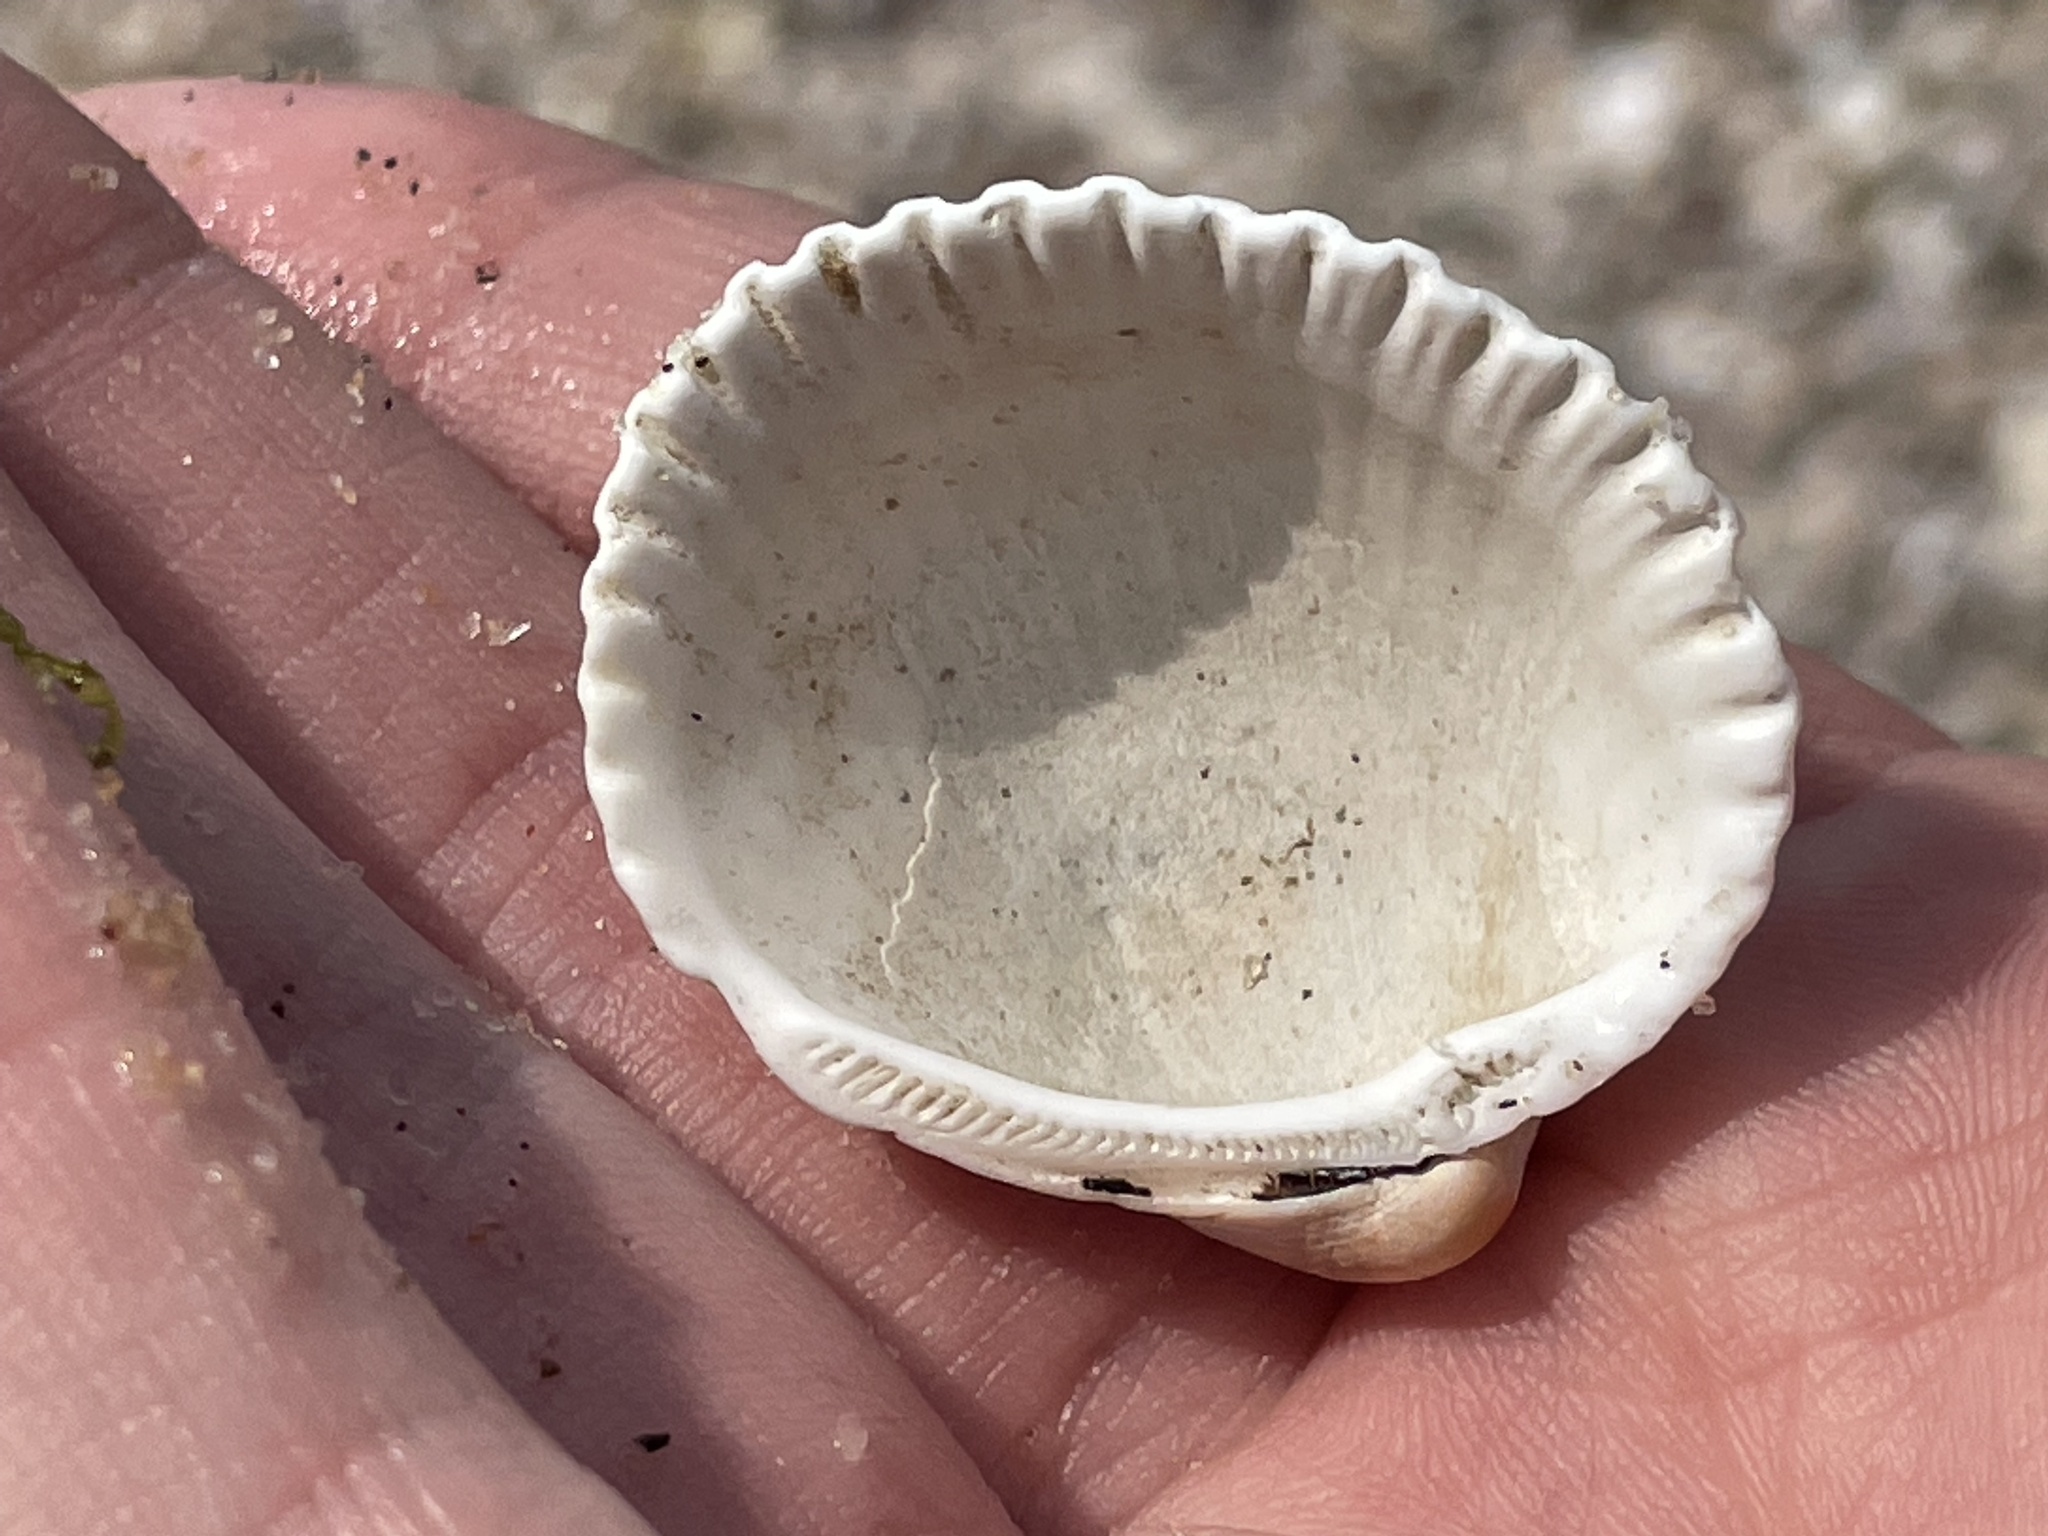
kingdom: Animalia
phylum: Mollusca
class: Bivalvia
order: Arcida
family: Arcidae
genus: Lunarca
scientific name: Lunarca ovalis
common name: Blood ark
